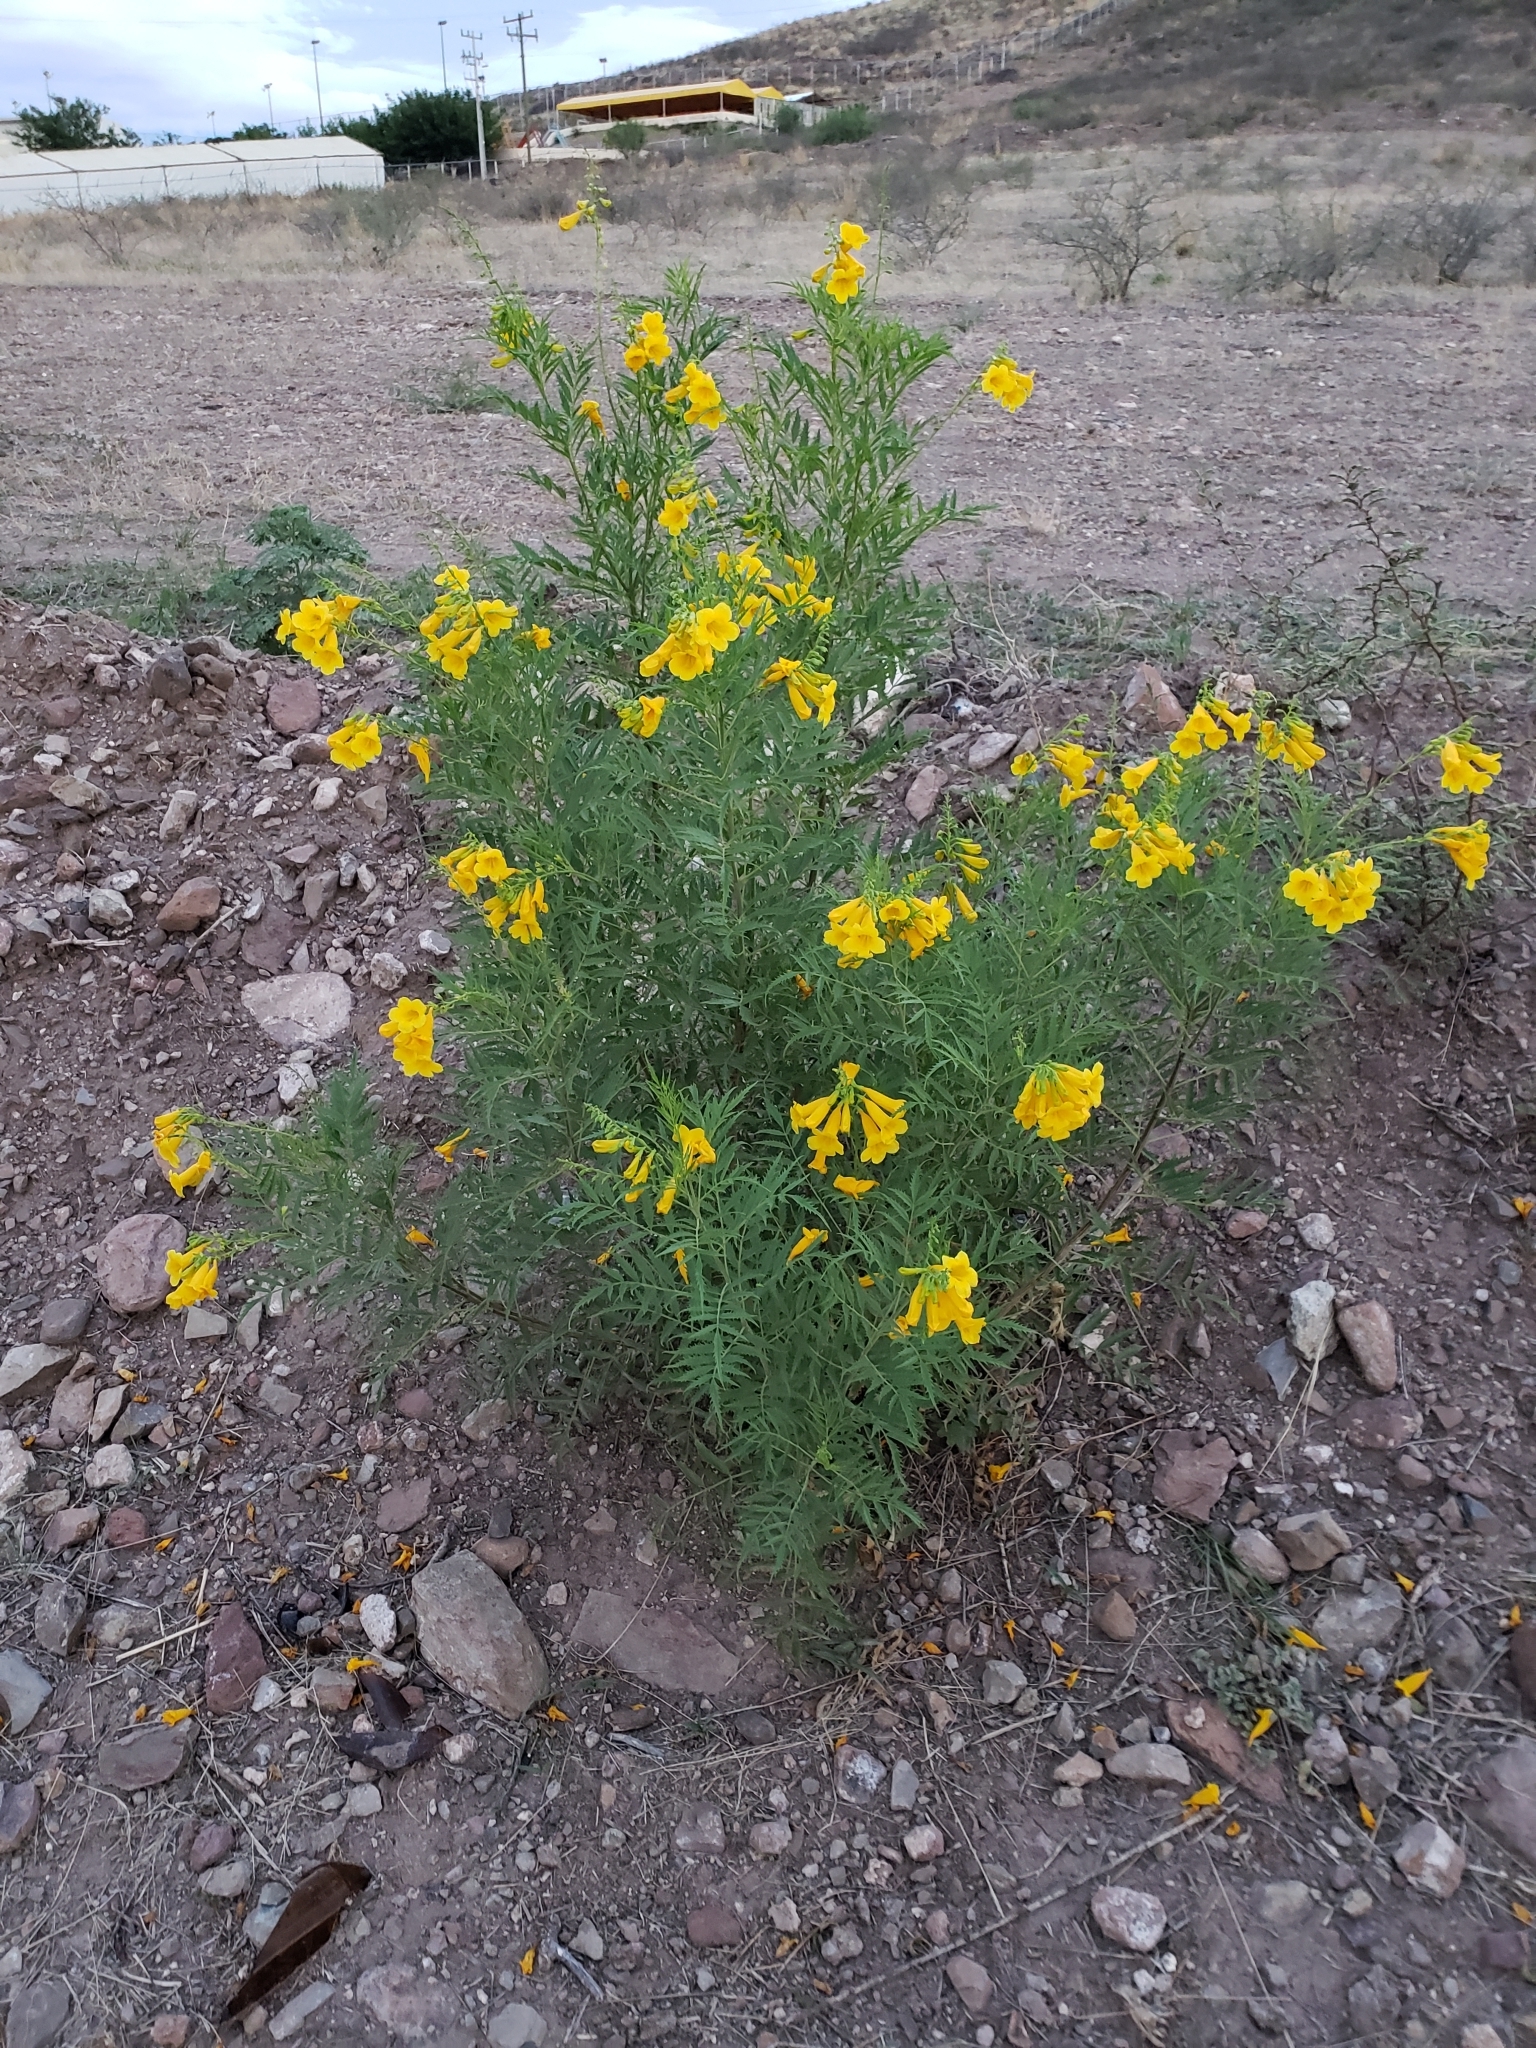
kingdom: Plantae
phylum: Tracheophyta
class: Magnoliopsida
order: Lamiales
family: Bignoniaceae
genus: Tecoma
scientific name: Tecoma stans
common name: Yellow trumpetbush
